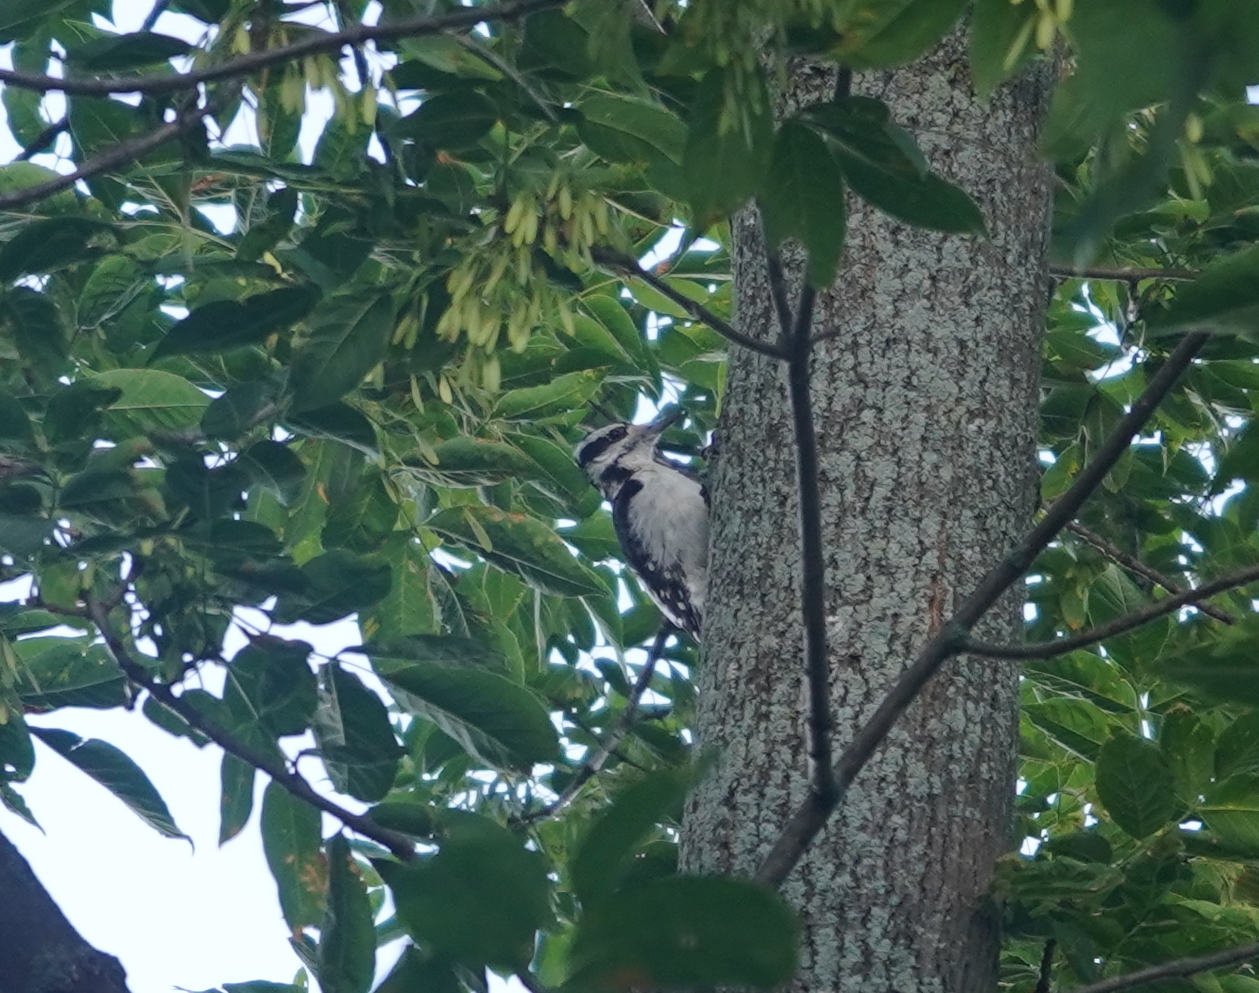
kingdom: Animalia
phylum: Chordata
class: Aves
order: Piciformes
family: Picidae
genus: Leuconotopicus
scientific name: Leuconotopicus villosus
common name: Hairy woodpecker
